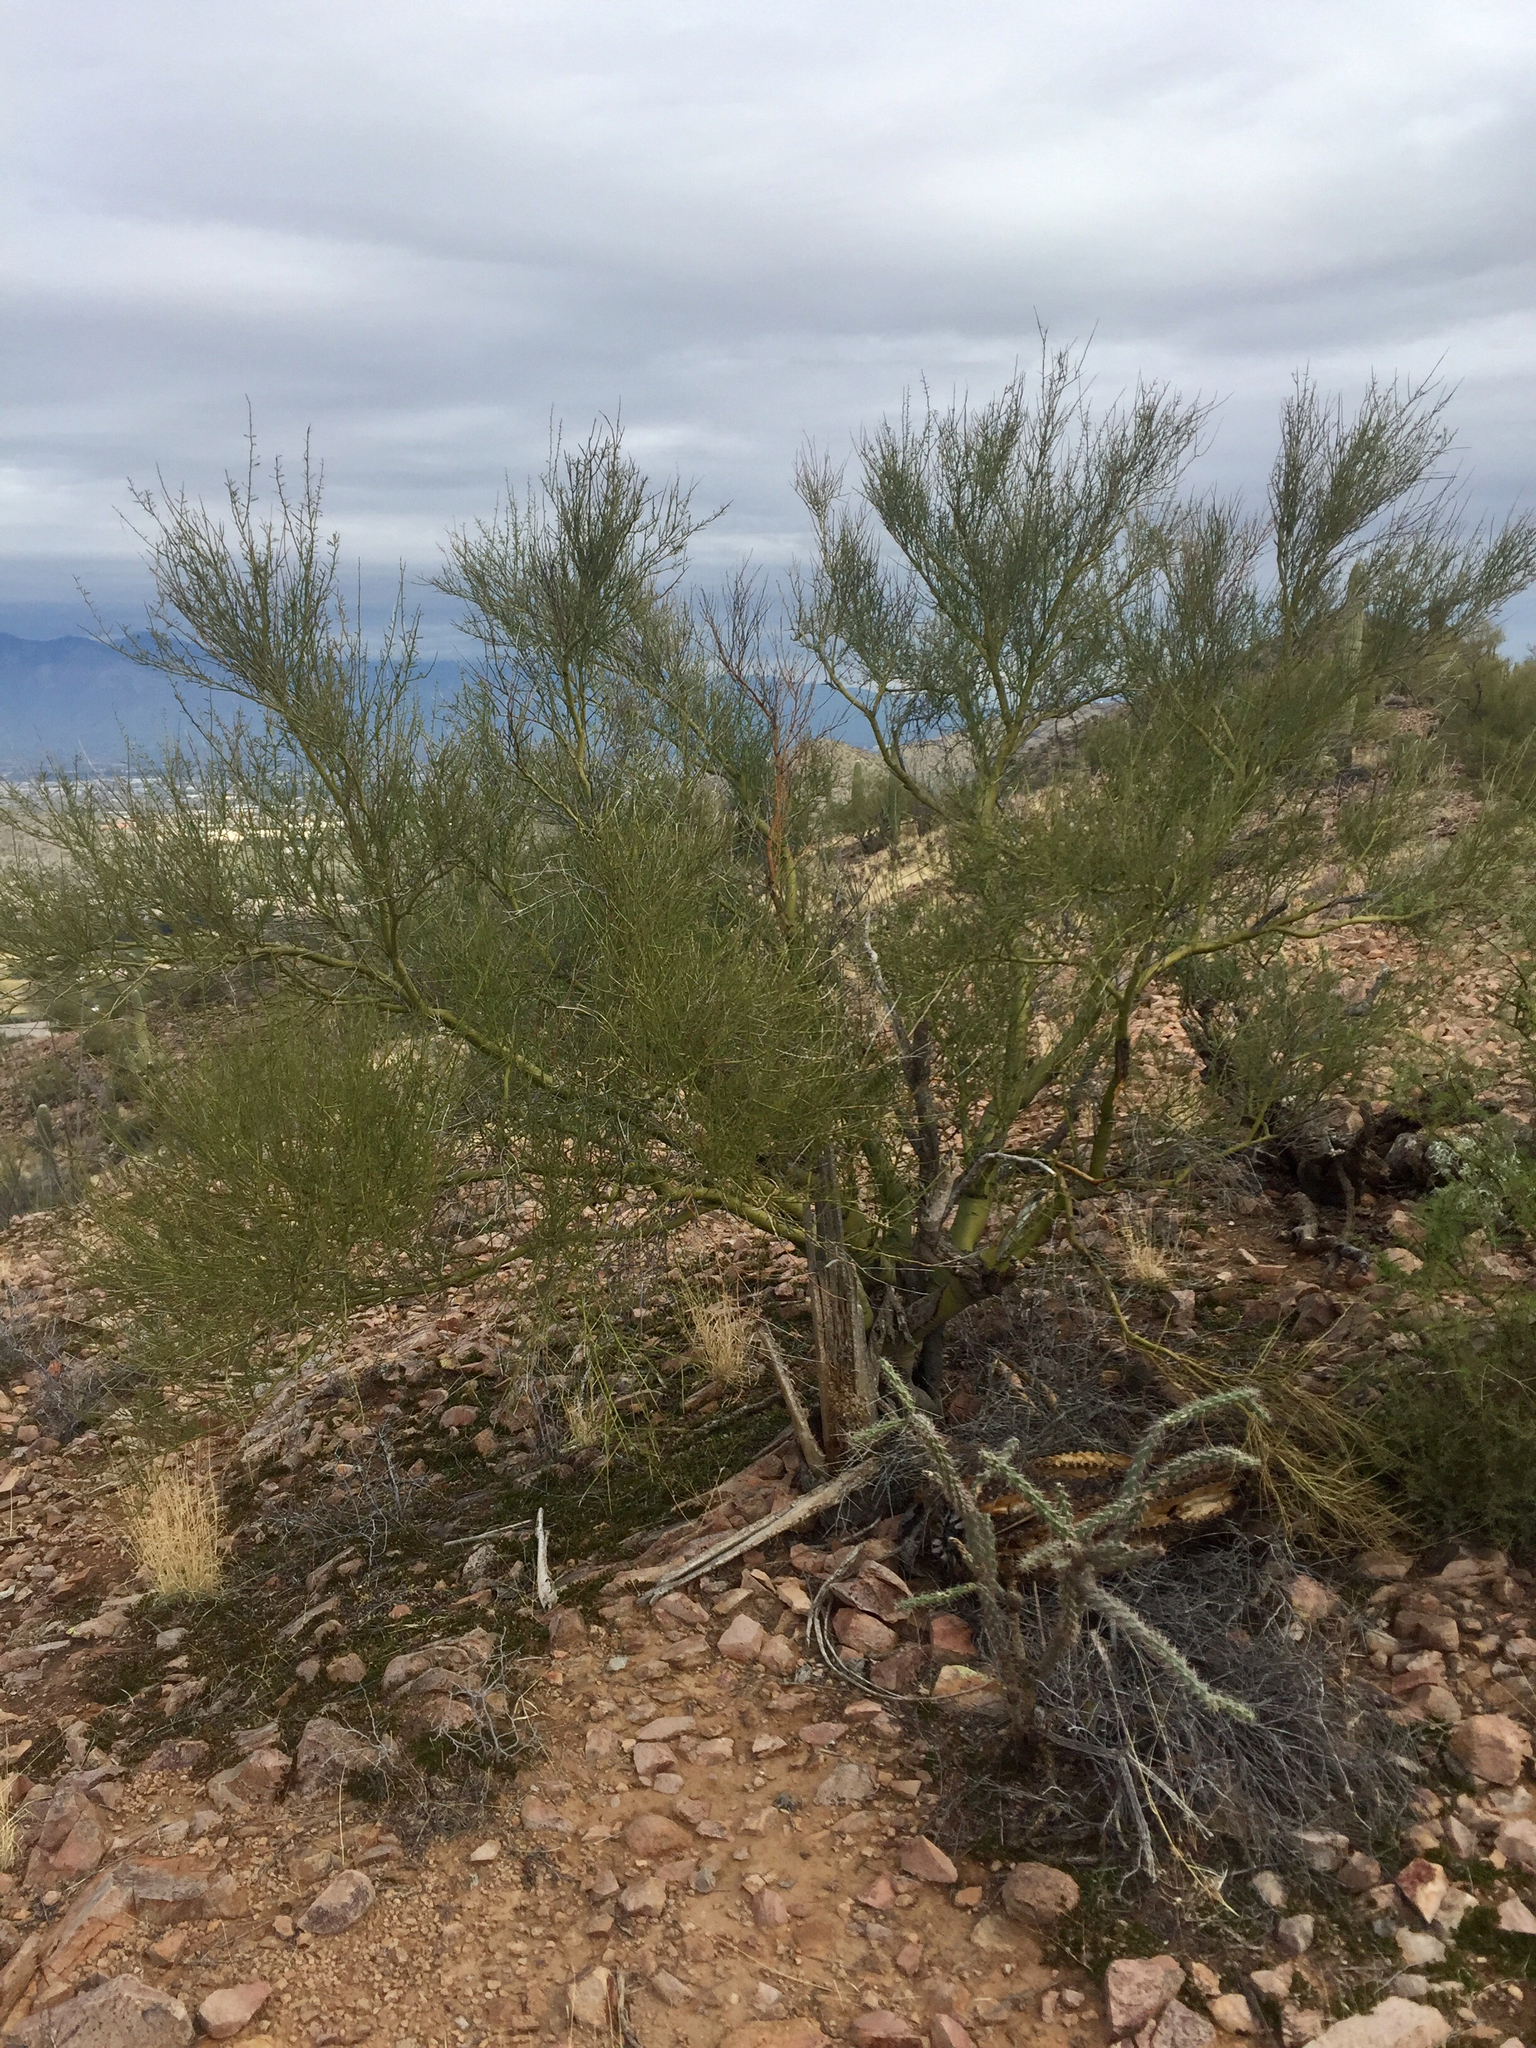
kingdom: Plantae
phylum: Tracheophyta
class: Magnoliopsida
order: Solanales
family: Solanaceae
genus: Lycium
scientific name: Lycium berlandieri
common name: Berlandier wolfberry
